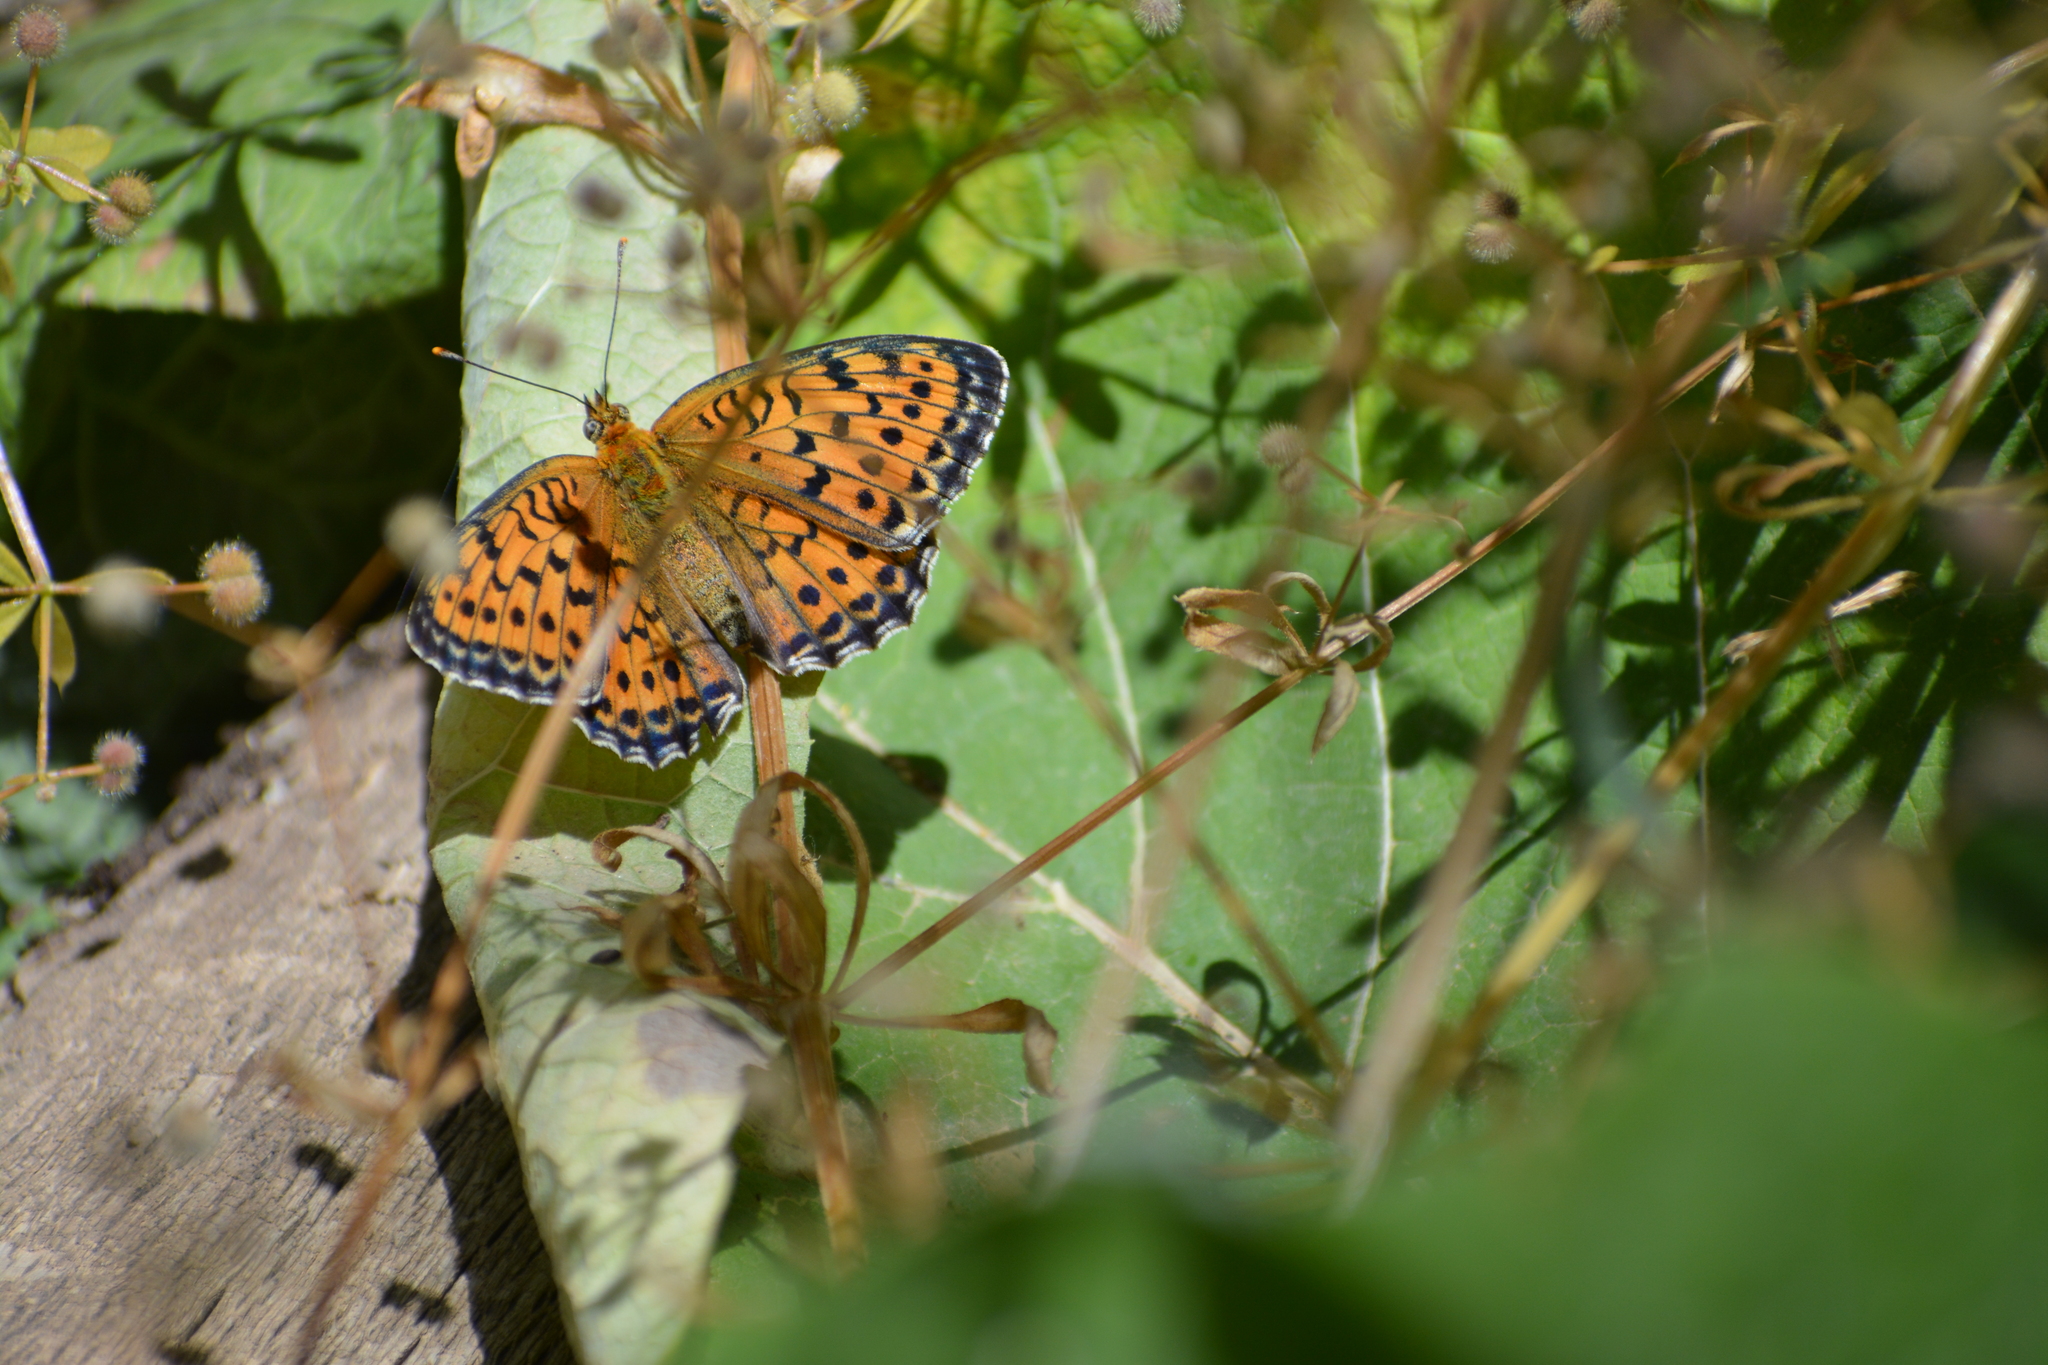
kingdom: Animalia
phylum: Arthropoda
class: Insecta
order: Lepidoptera
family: Nymphalidae
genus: Brenthis
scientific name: Brenthis hecate
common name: Twin-spot fritillary
